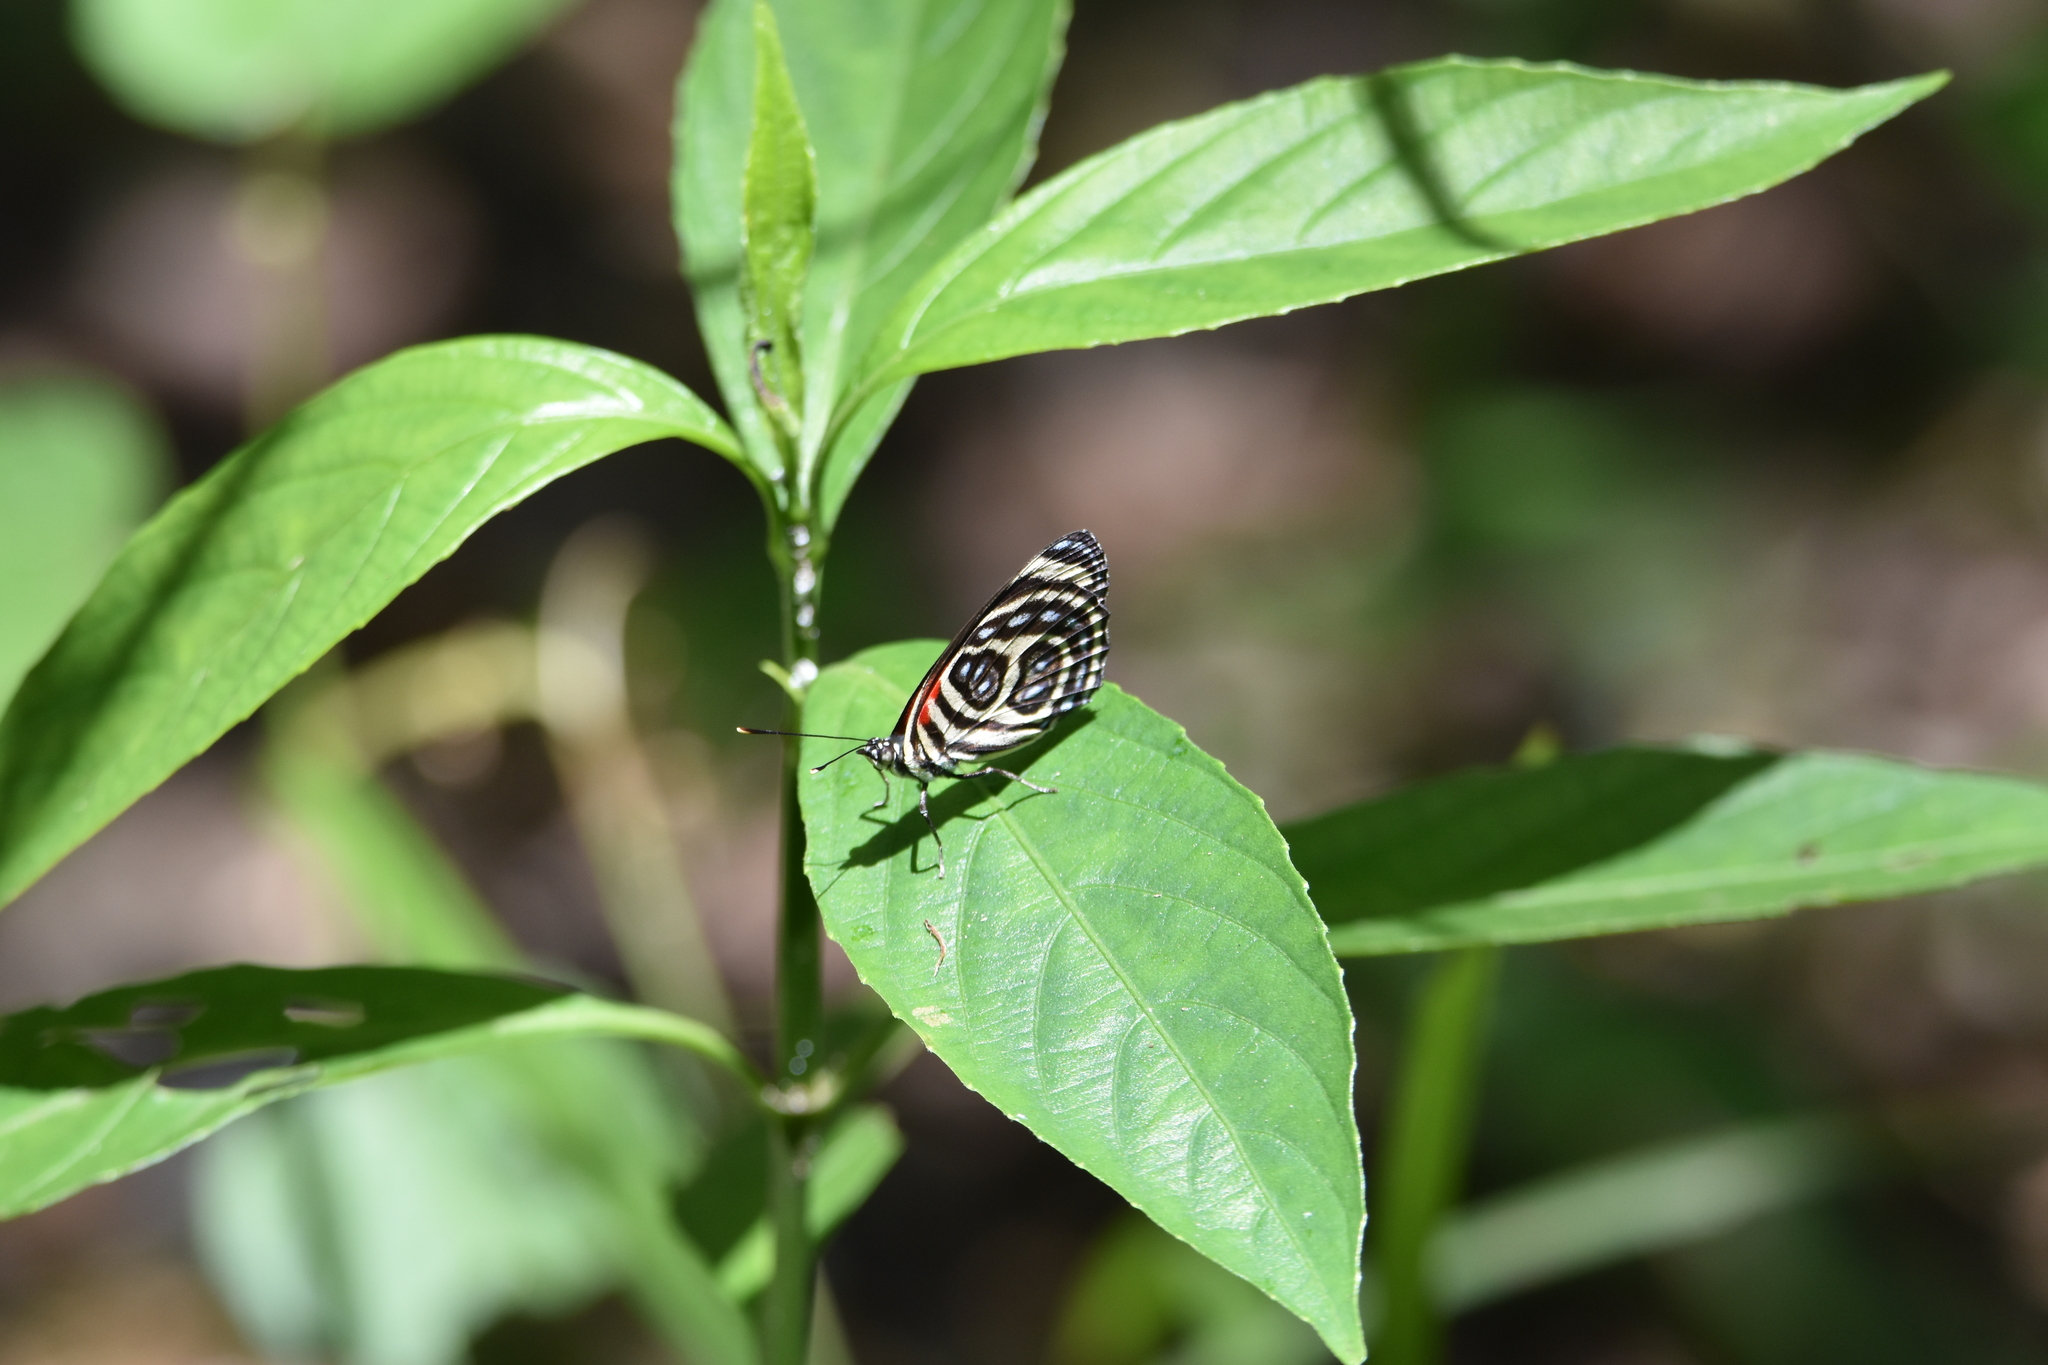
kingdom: Animalia
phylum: Arthropoda
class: Insecta
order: Lepidoptera
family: Nymphalidae
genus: Catagramma
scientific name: Catagramma pygas
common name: Godart's numberwing
